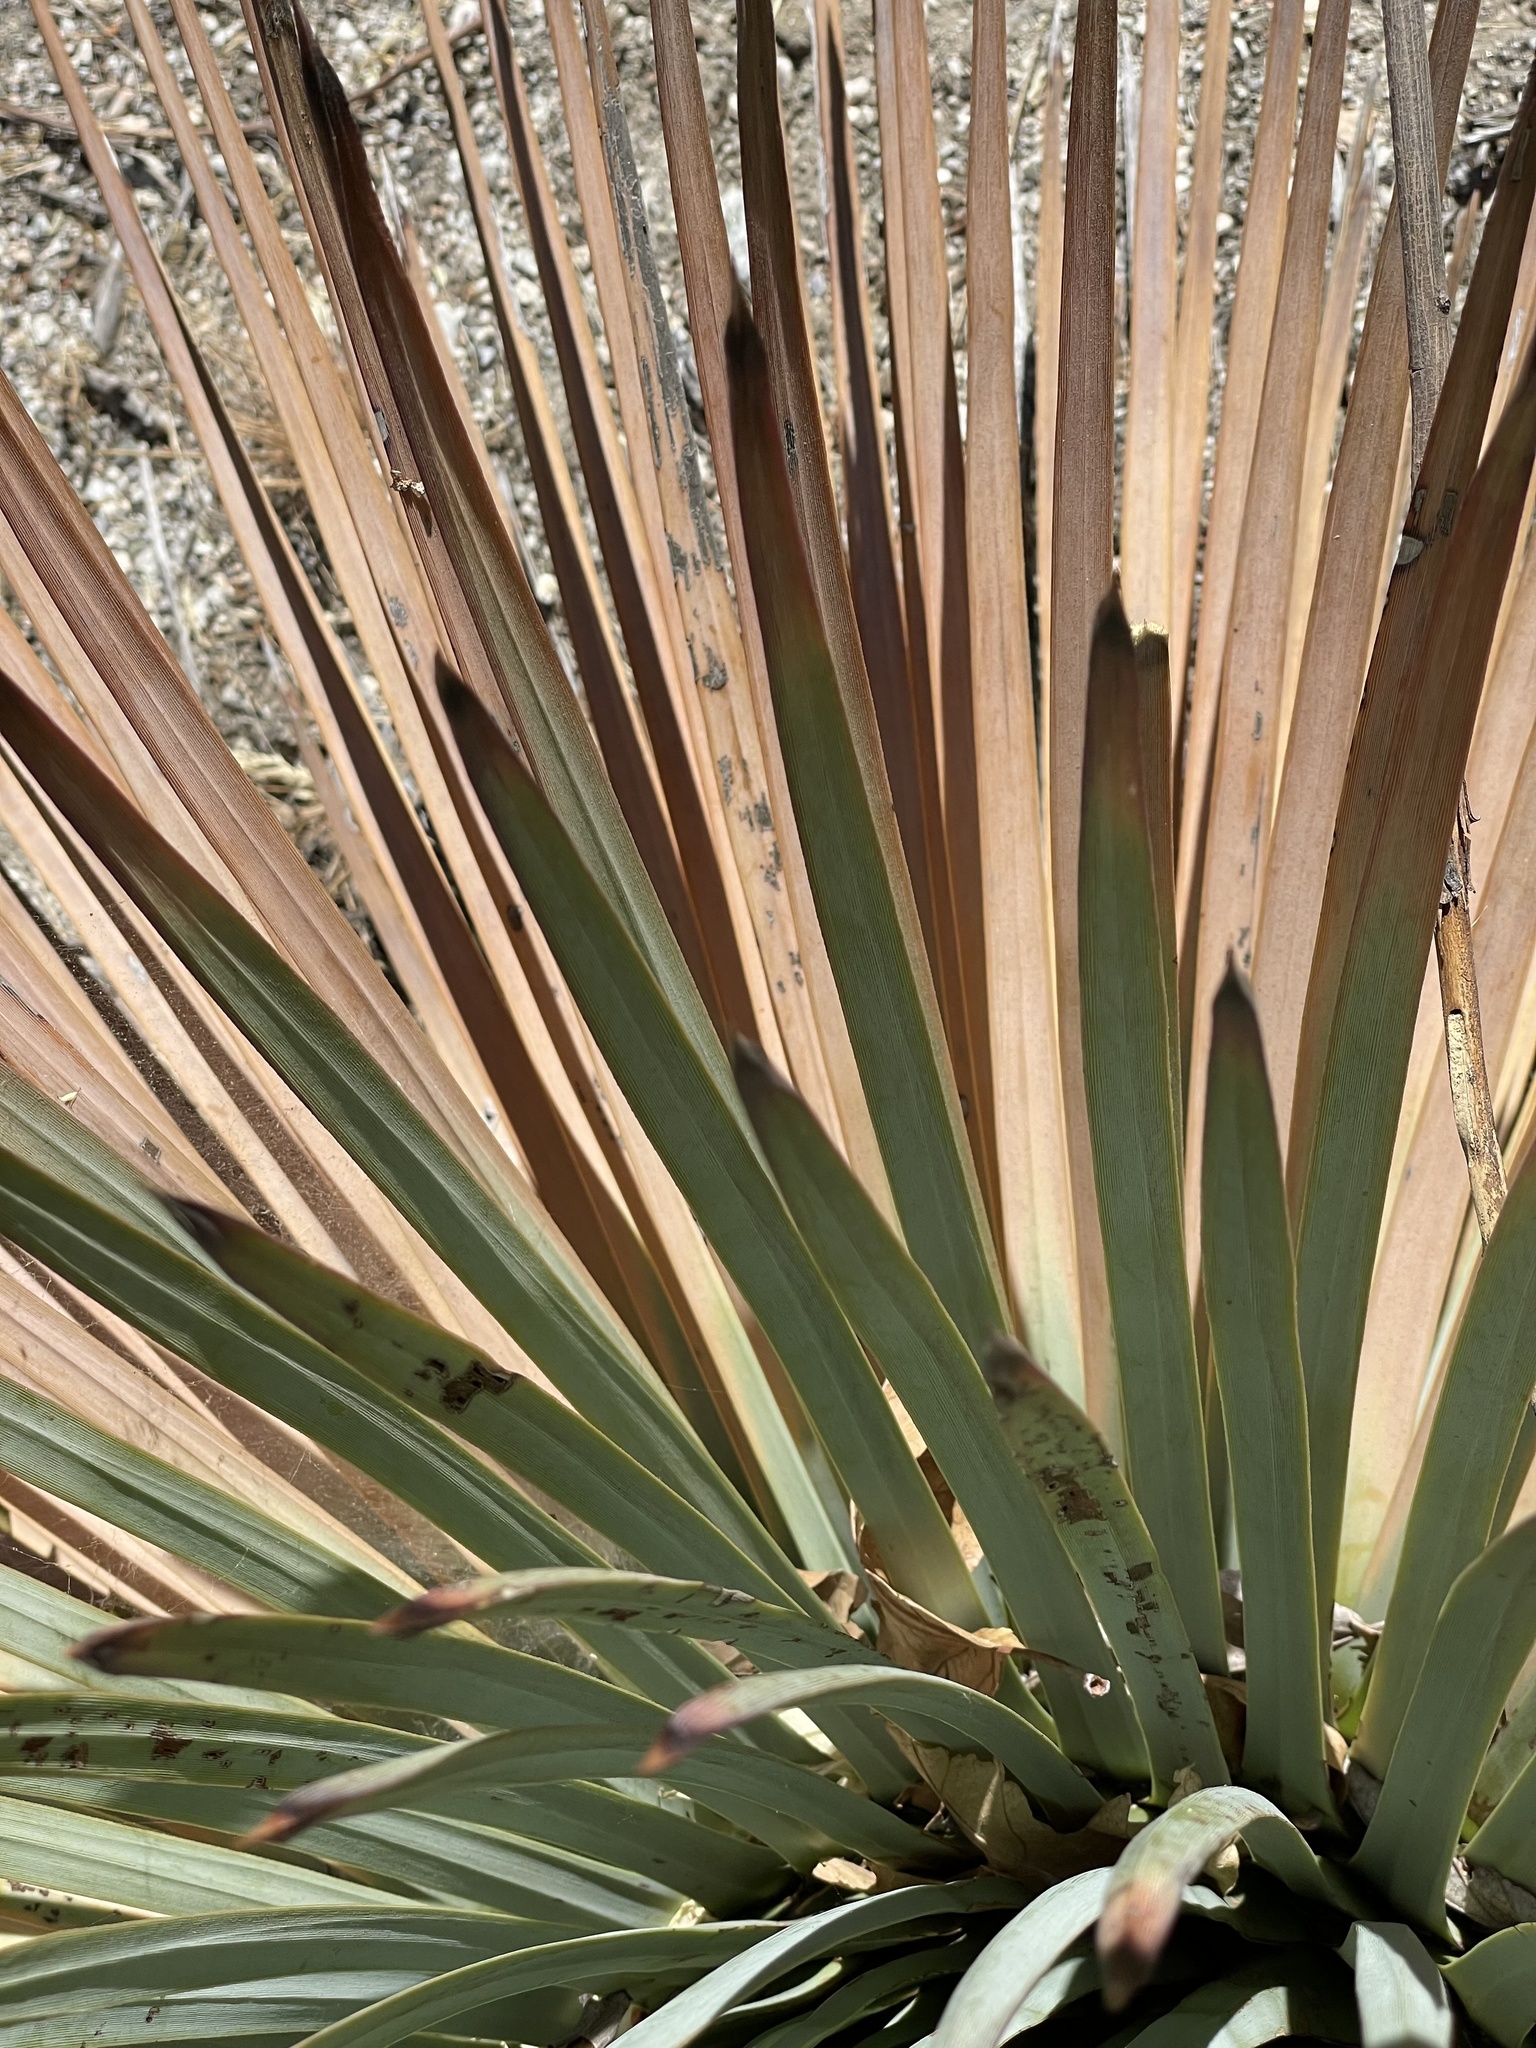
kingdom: Plantae
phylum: Tracheophyta
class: Liliopsida
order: Asparagales
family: Asparagaceae
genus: Hesperoyucca
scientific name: Hesperoyucca whipplei
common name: Our lord's-candle
